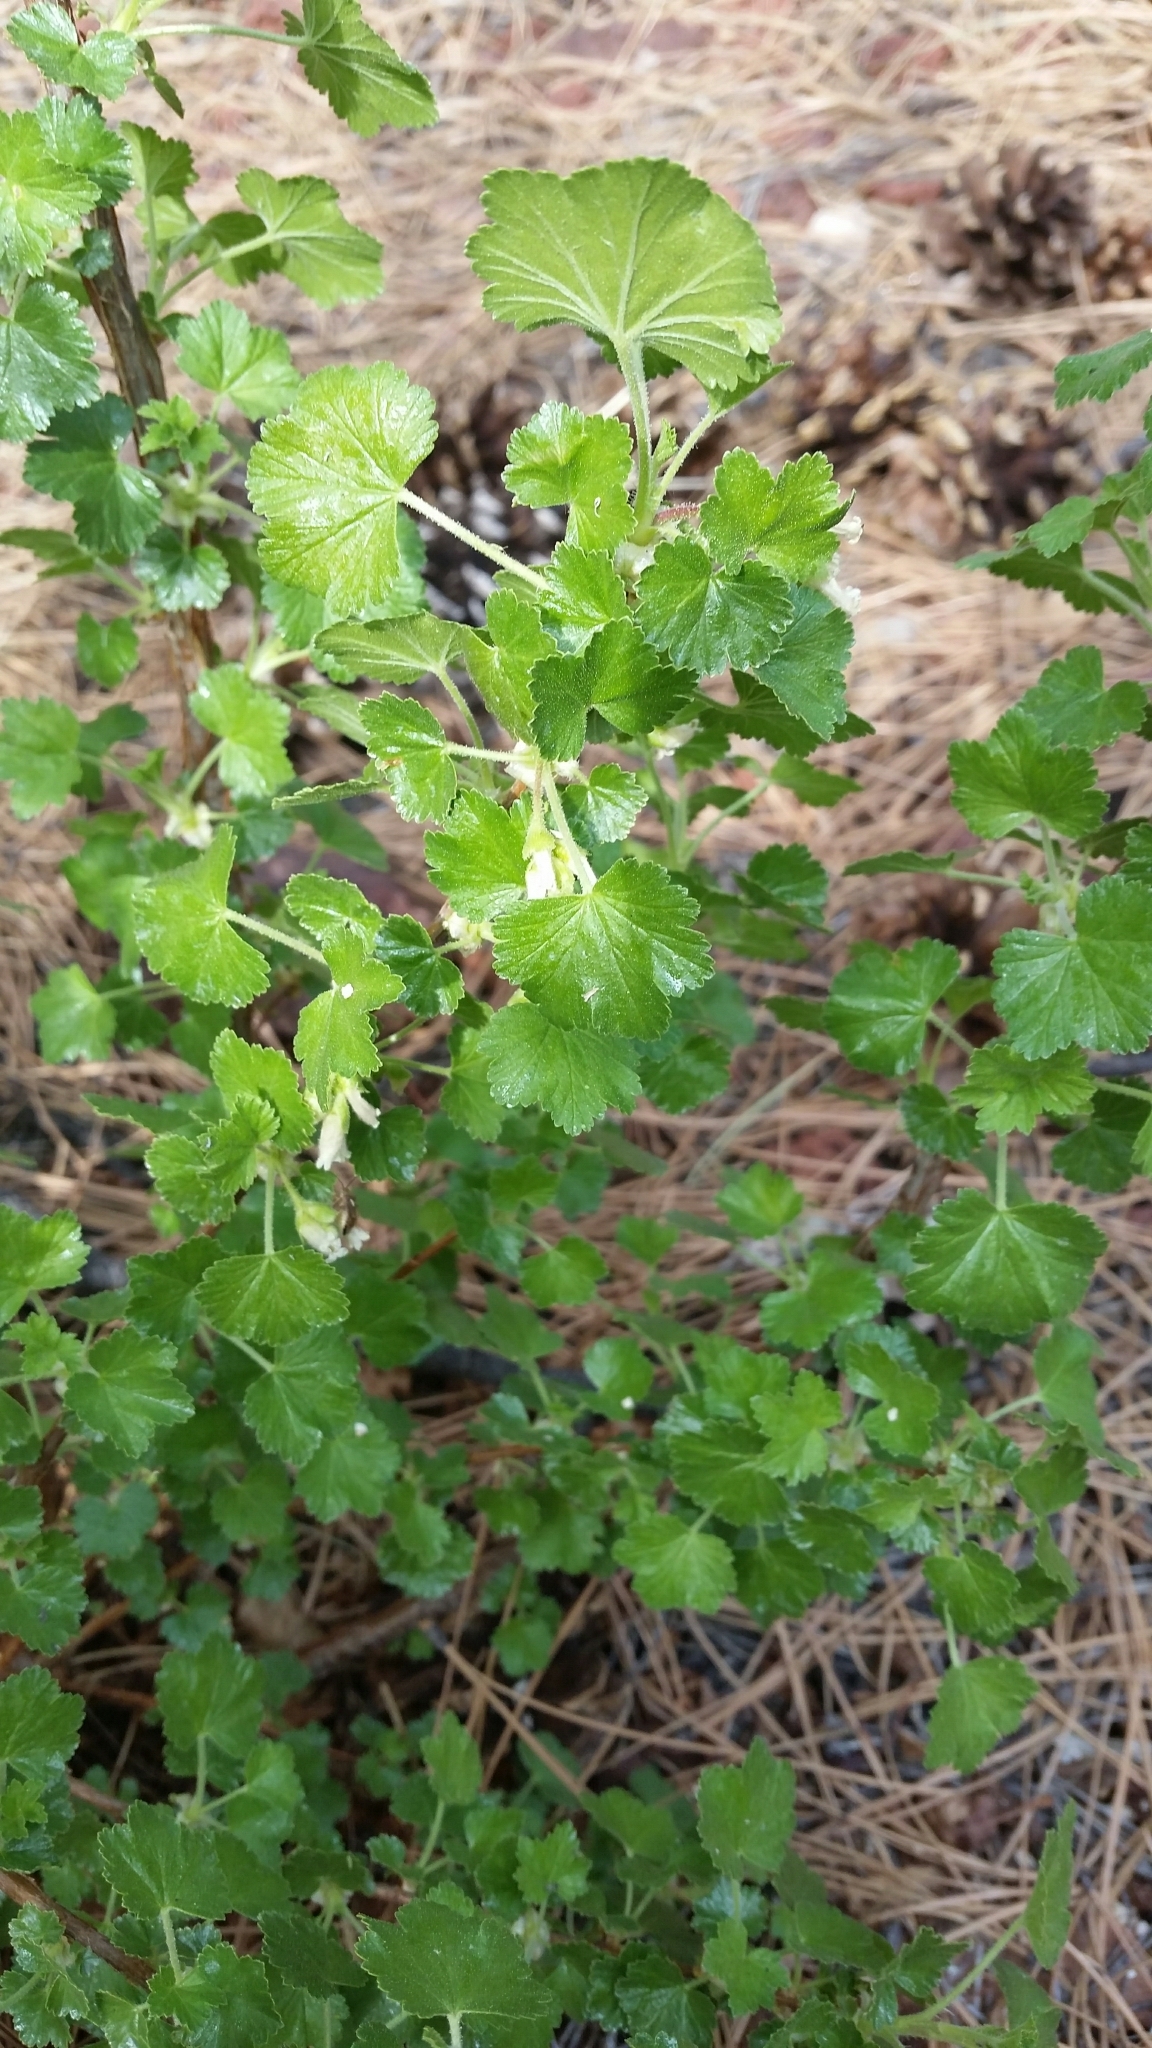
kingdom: Plantae
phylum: Tracheophyta
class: Magnoliopsida
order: Saxifragales
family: Grossulariaceae
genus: Ribes
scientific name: Ribes cereum
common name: Wax currant
